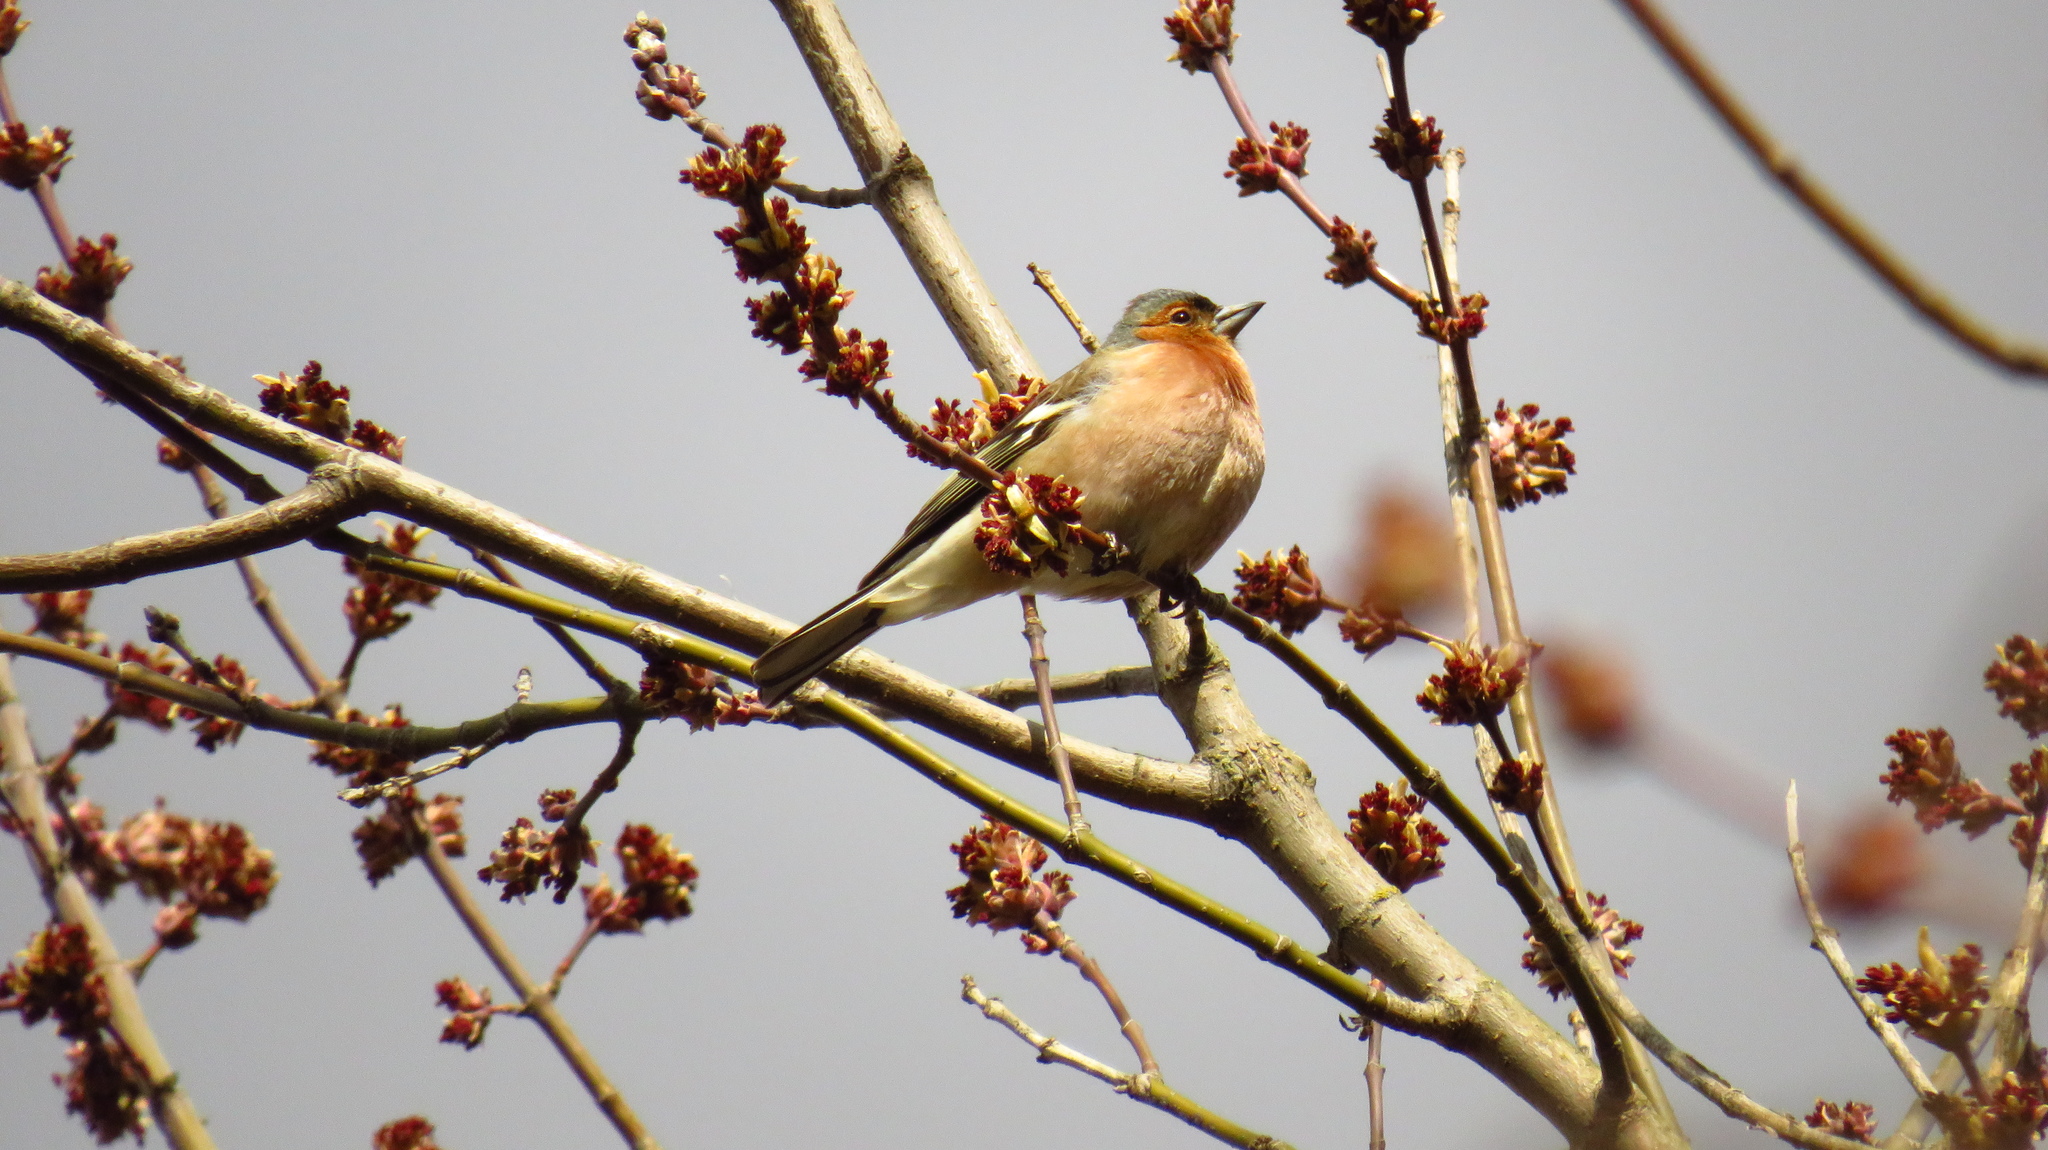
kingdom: Animalia
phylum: Chordata
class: Aves
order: Passeriformes
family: Fringillidae
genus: Fringilla
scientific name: Fringilla coelebs
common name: Common chaffinch
